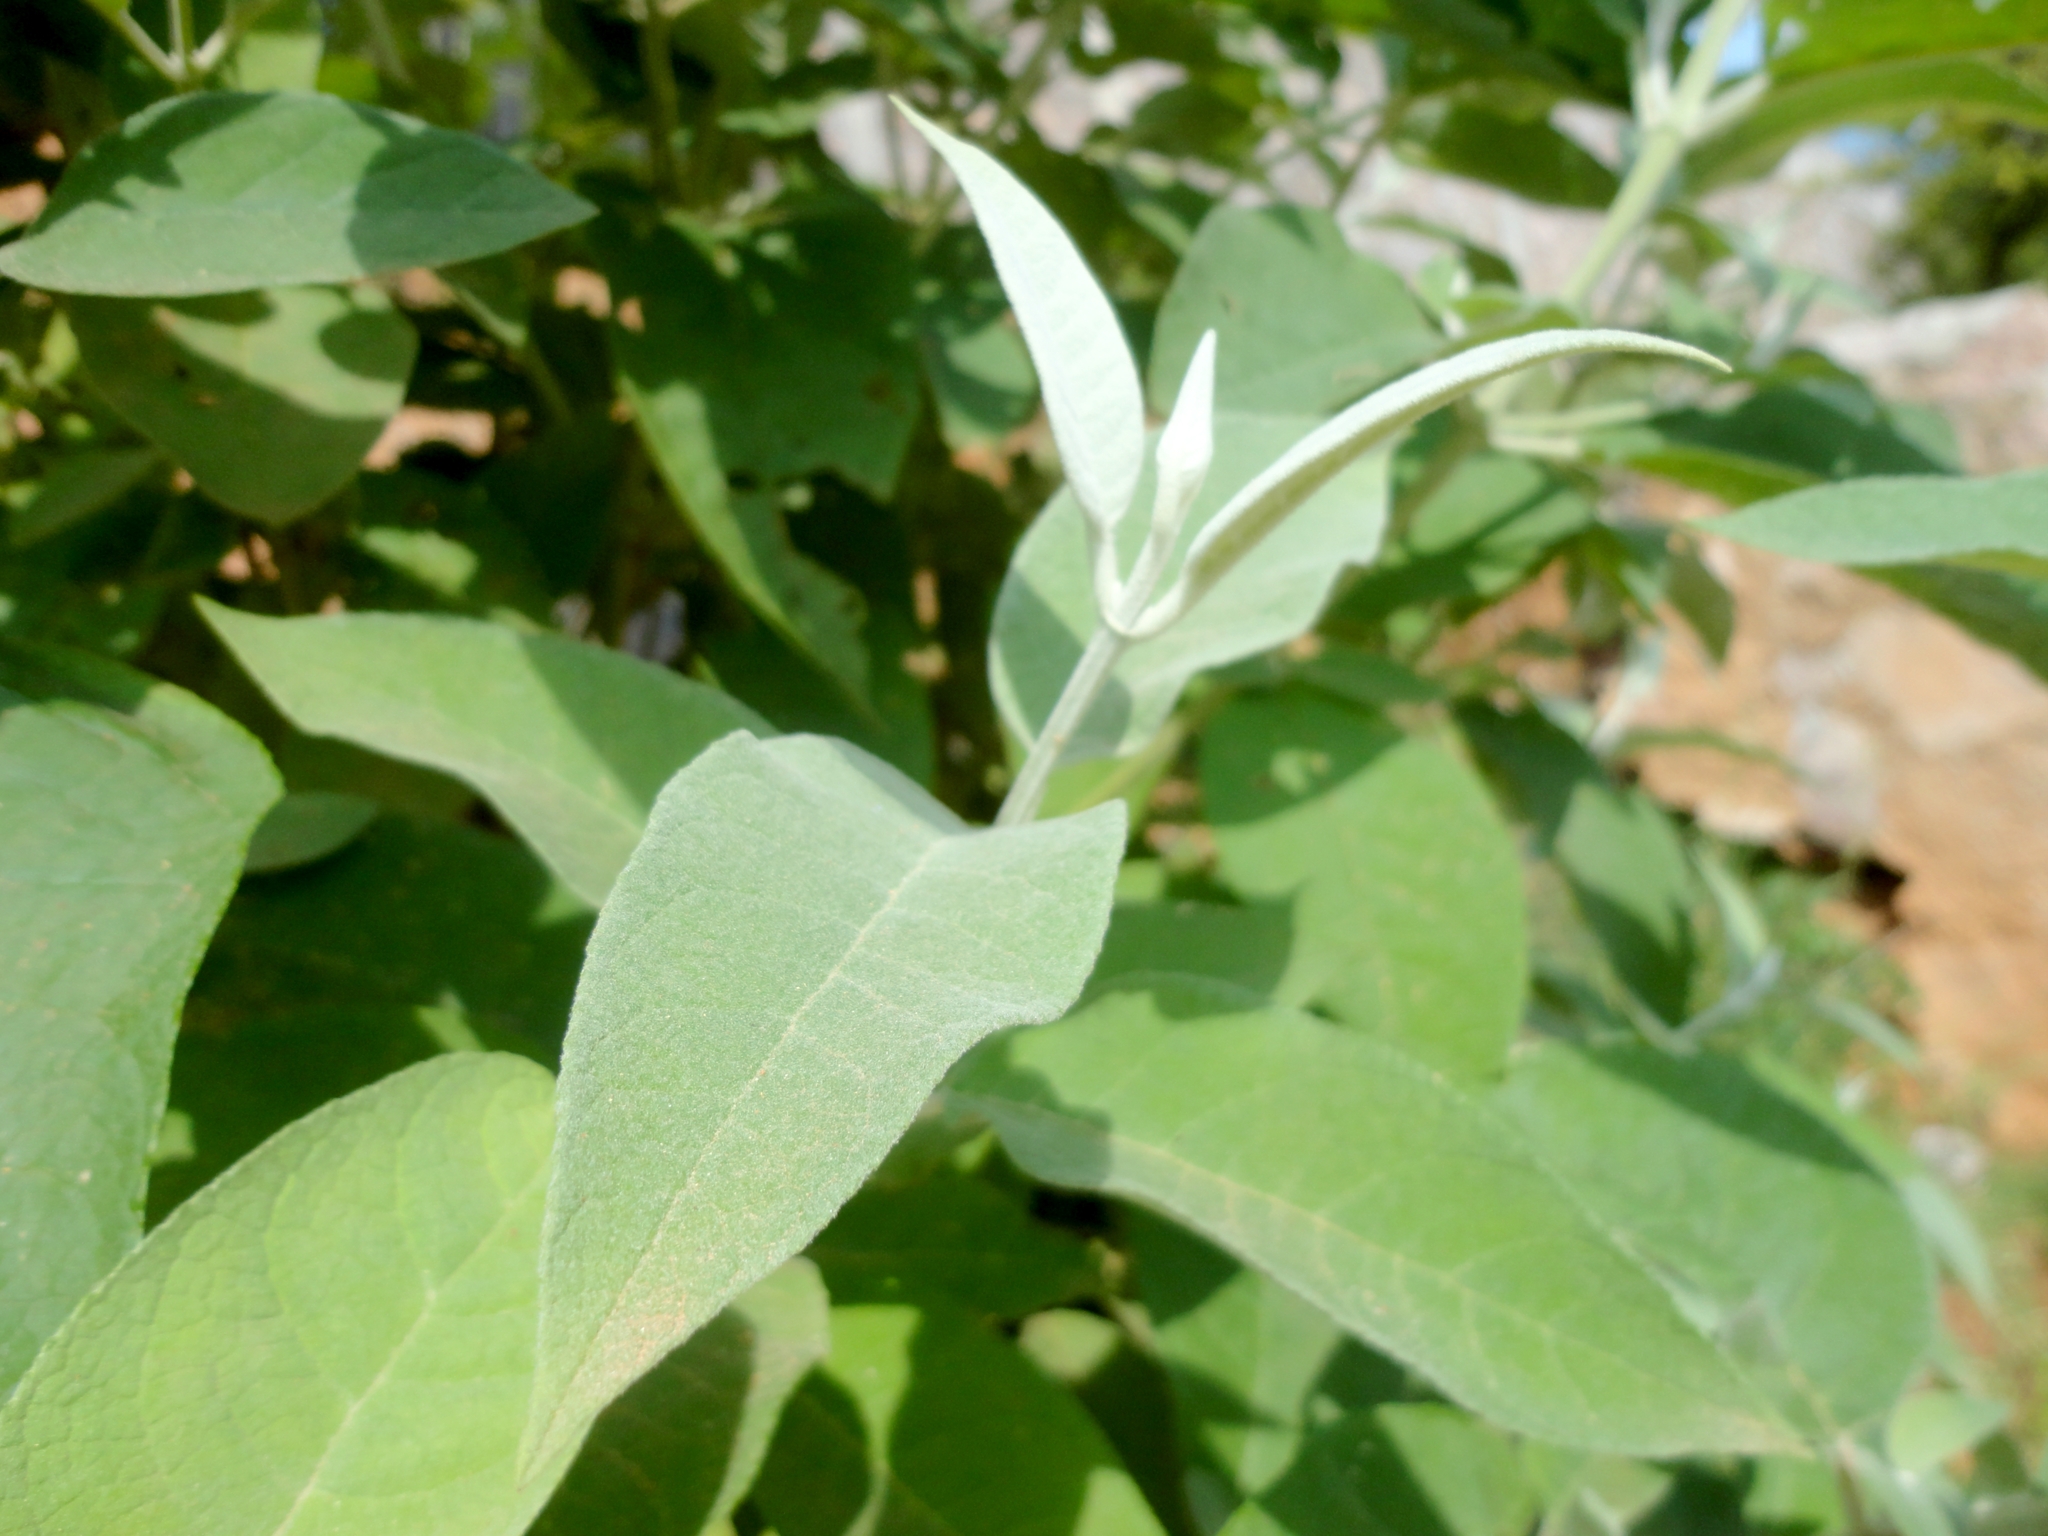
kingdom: Plantae
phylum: Tracheophyta
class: Magnoliopsida
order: Lamiales
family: Scrophulariaceae
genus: Buddleja
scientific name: Buddleja cordata
